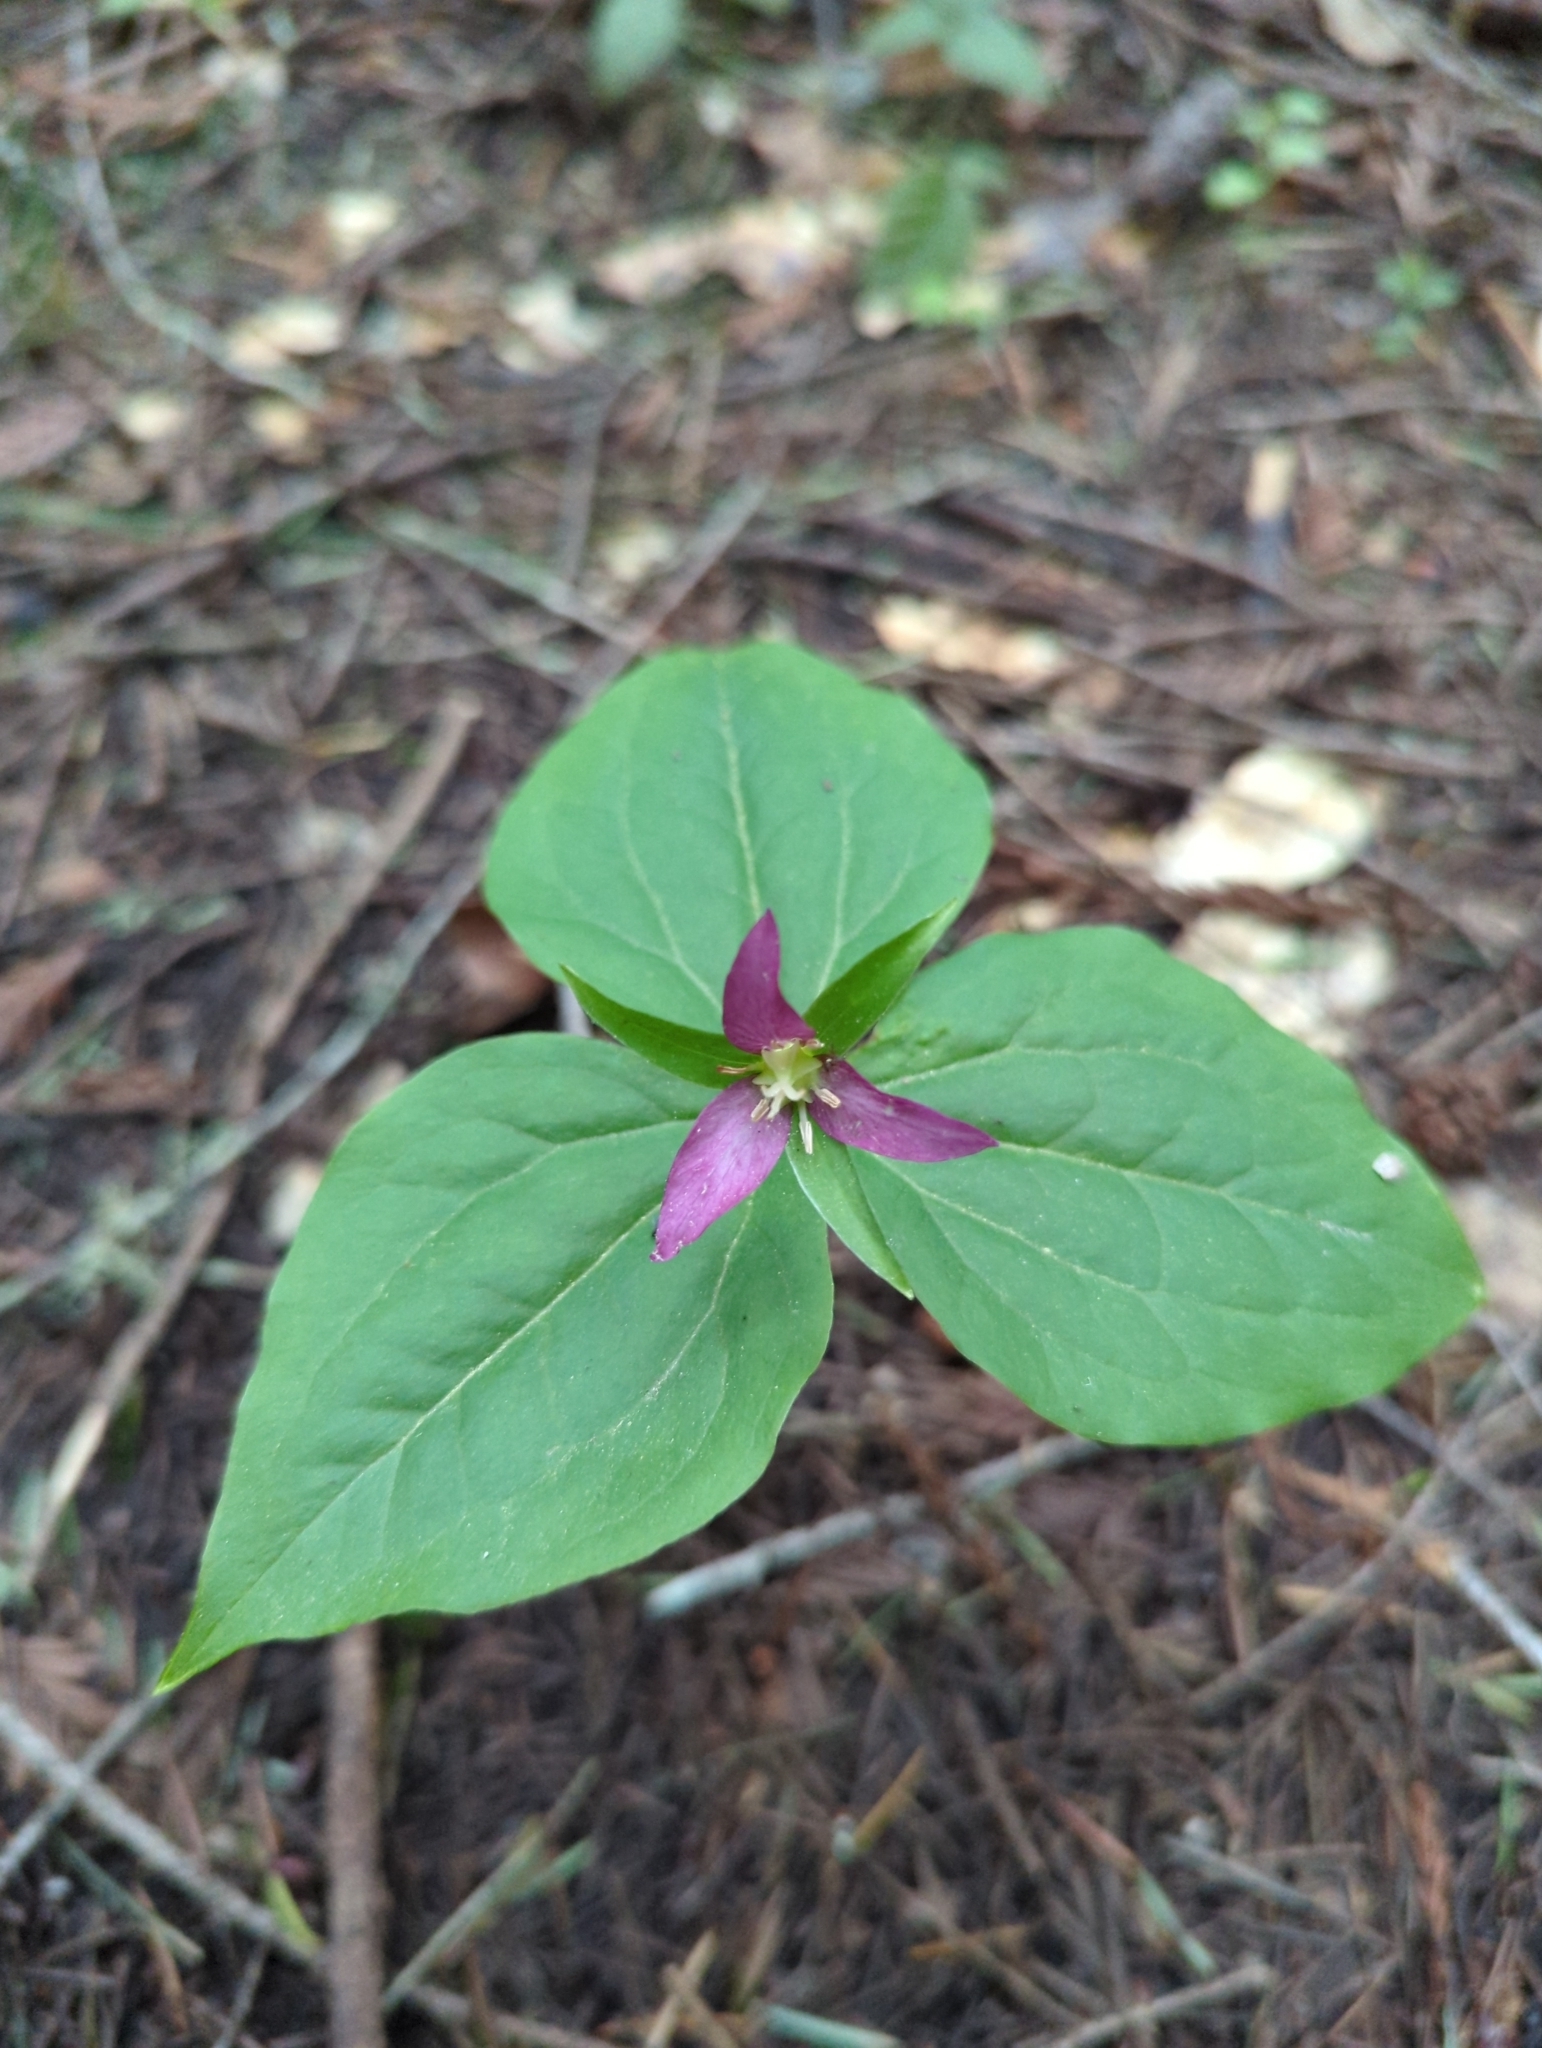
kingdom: Plantae
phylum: Tracheophyta
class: Liliopsida
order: Liliales
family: Melanthiaceae
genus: Trillium
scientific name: Trillium ovatum
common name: Pacific trillium
